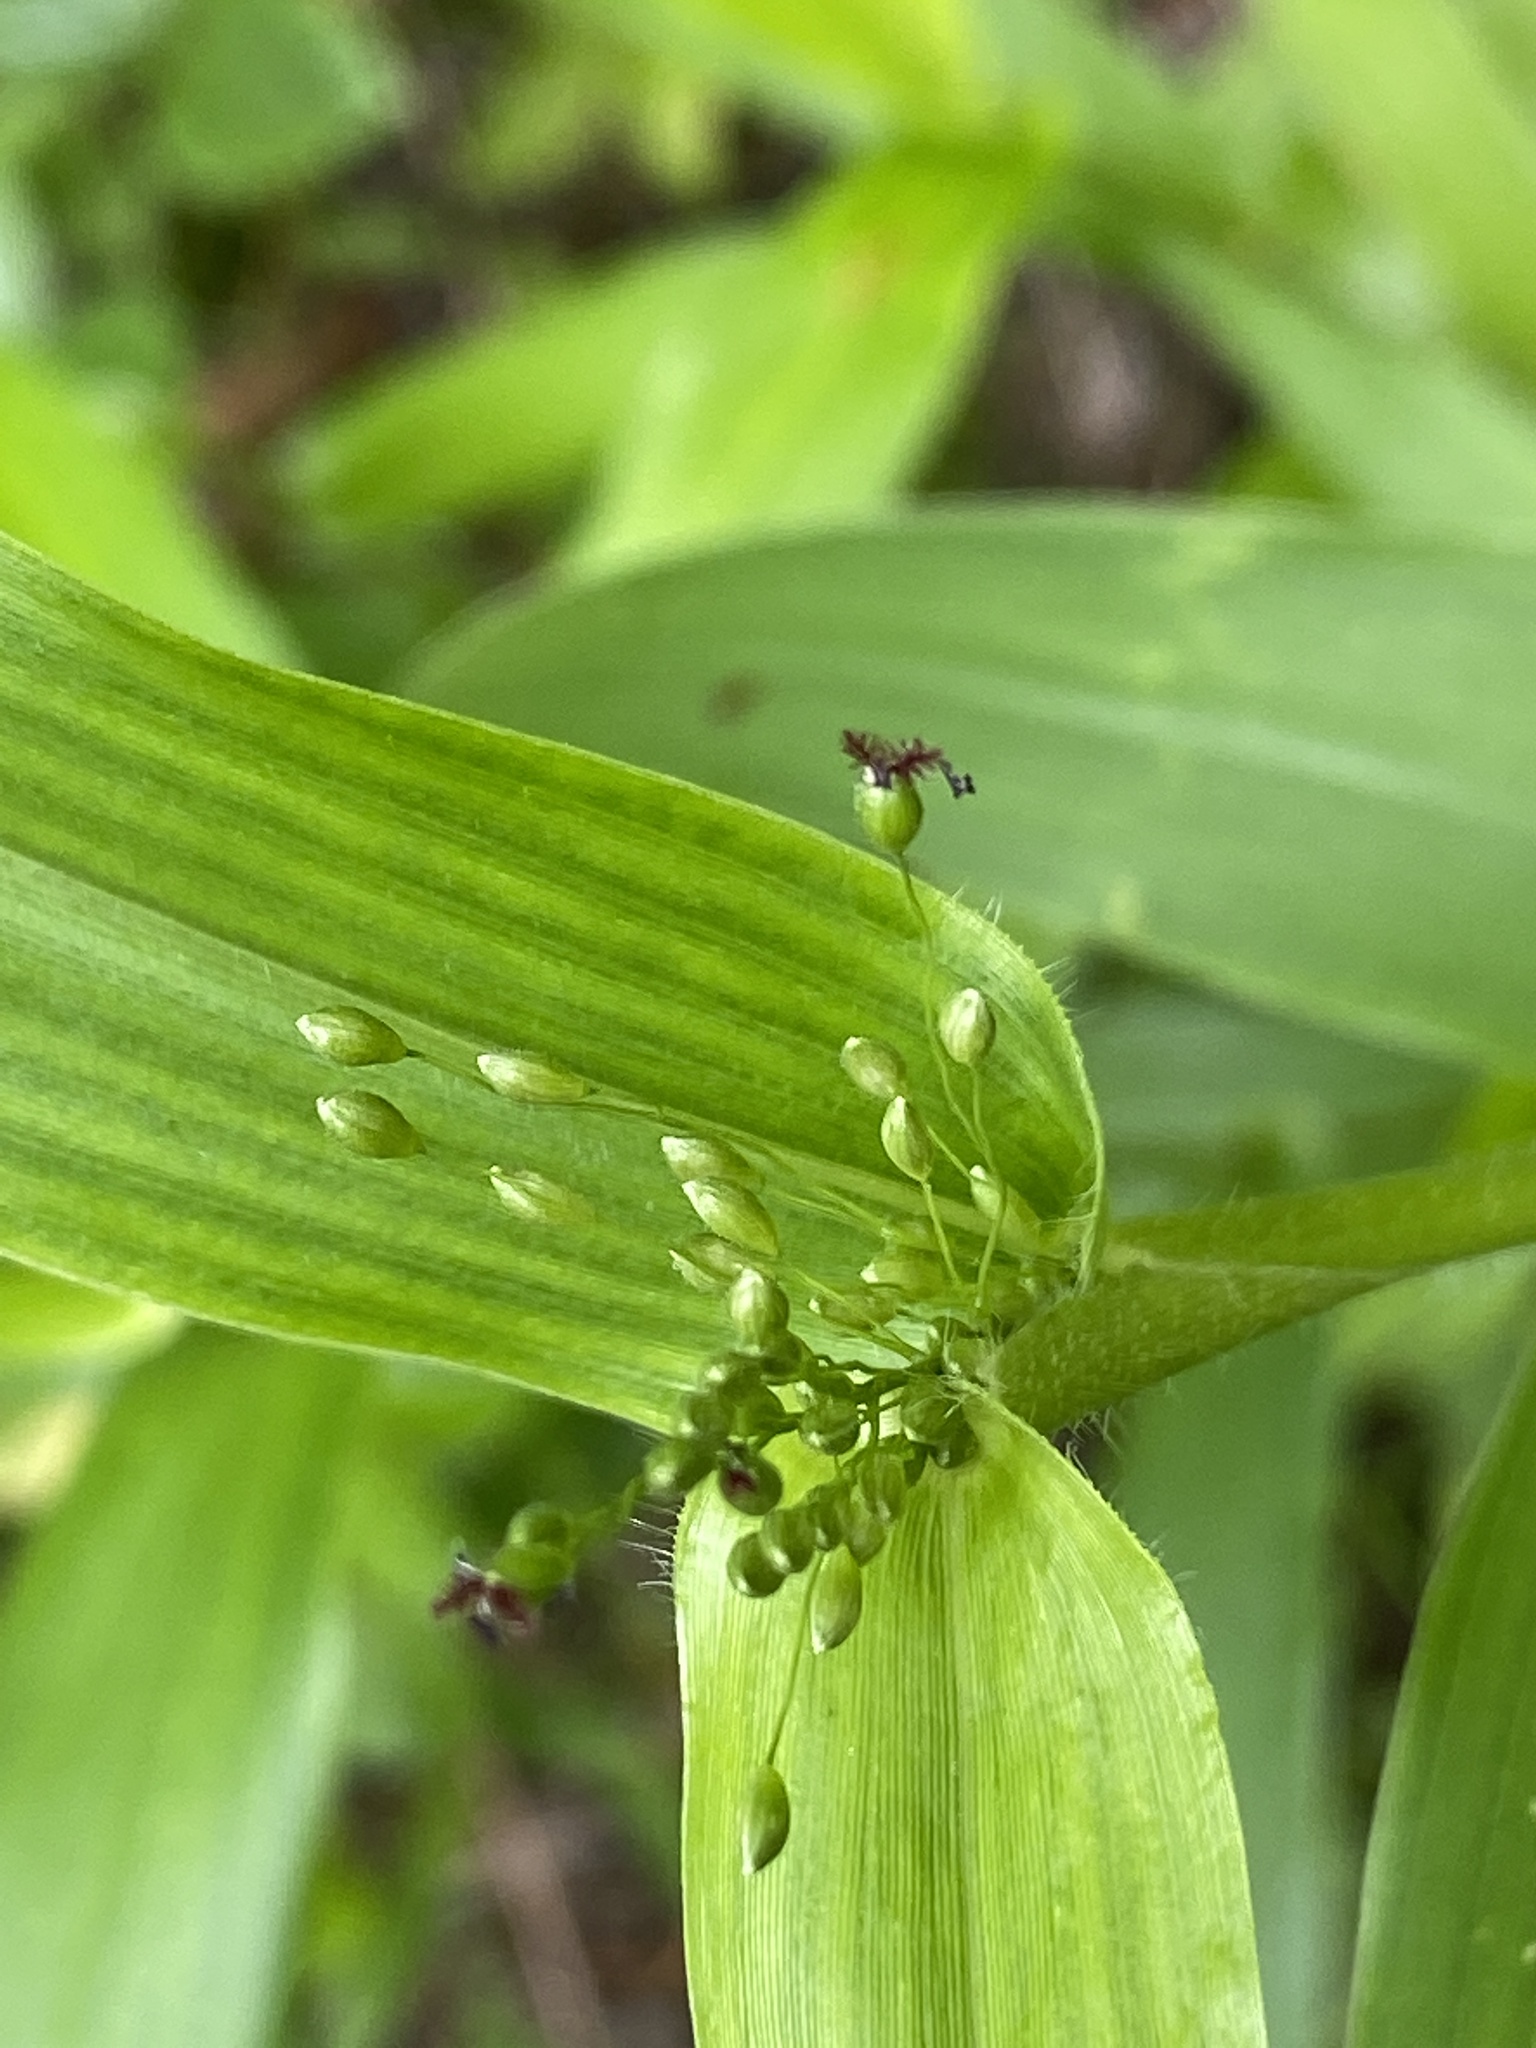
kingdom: Plantae
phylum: Tracheophyta
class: Liliopsida
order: Poales
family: Poaceae
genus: Dichanthelium
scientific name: Dichanthelium clandestinum
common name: Deer-tongue grass
